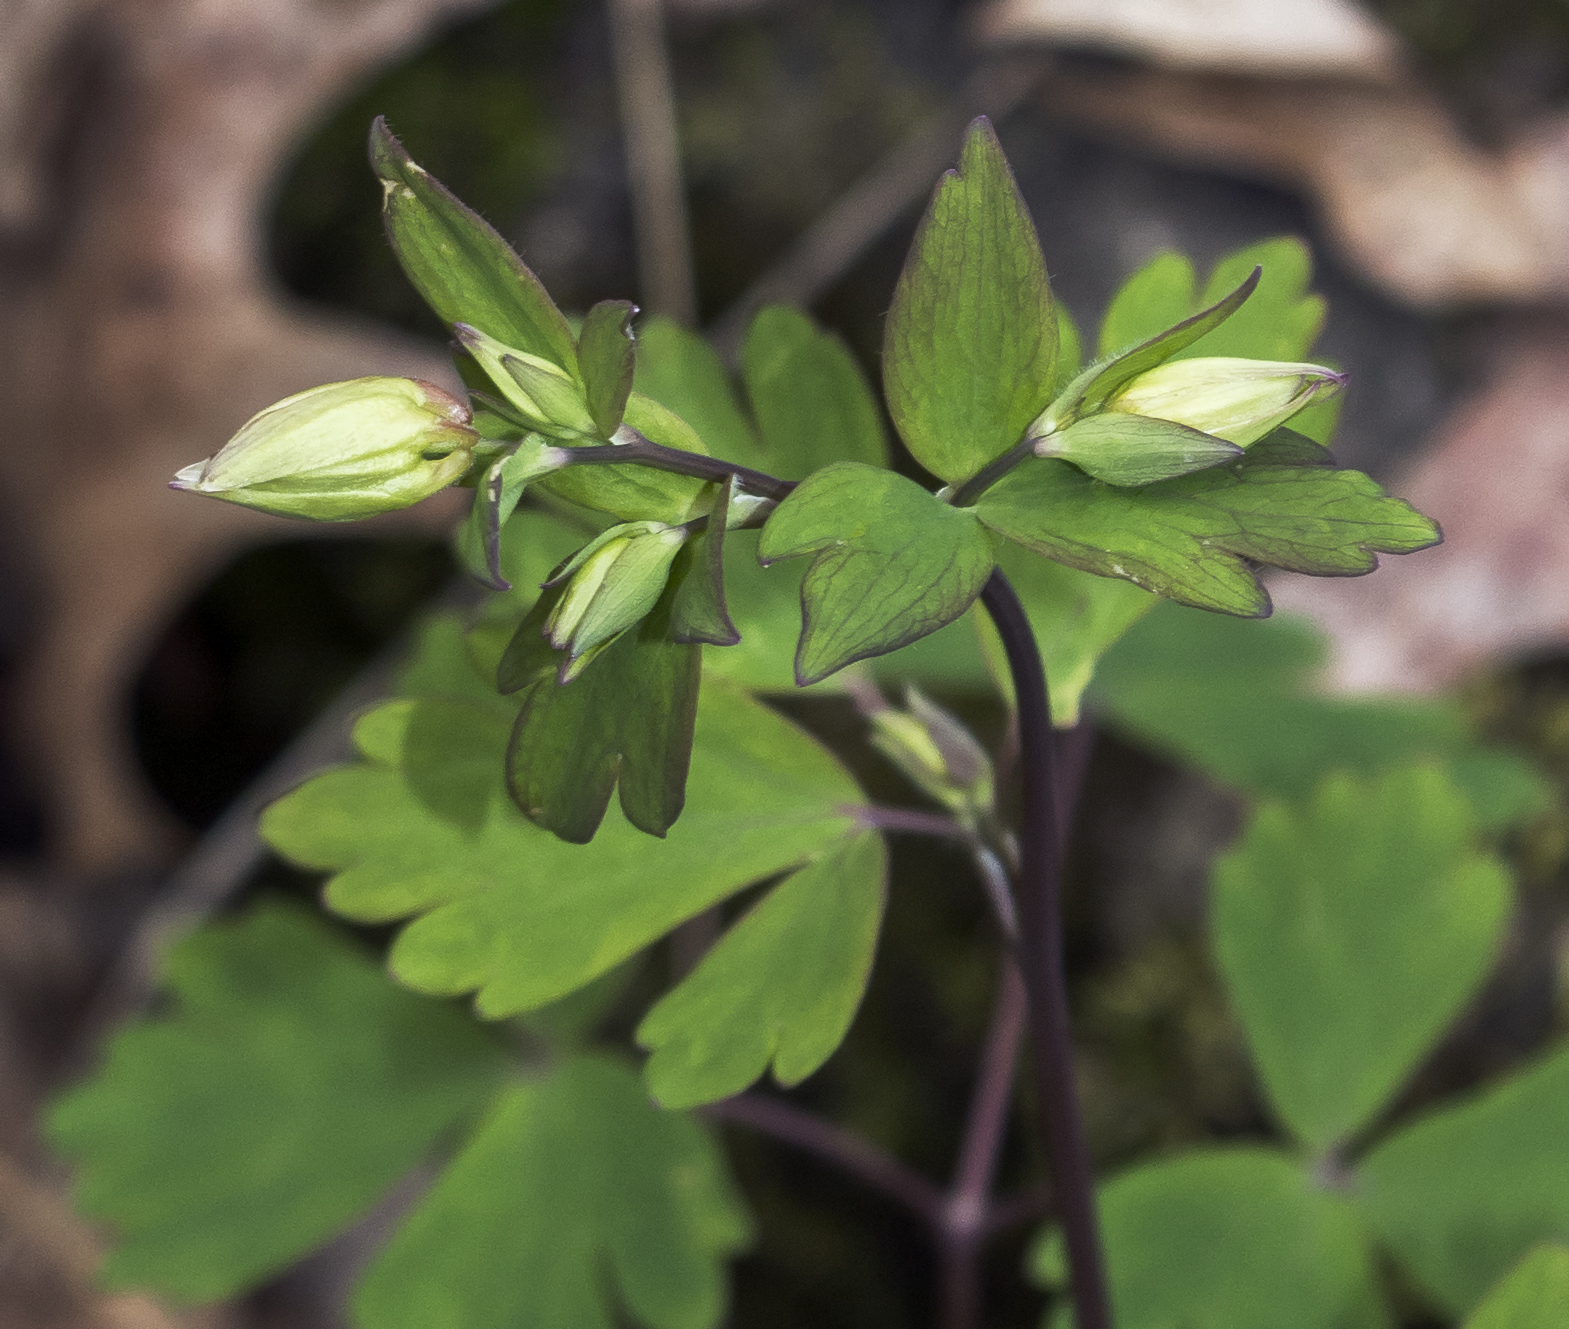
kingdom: Plantae
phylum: Tracheophyta
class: Magnoliopsida
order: Ranunculales
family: Ranunculaceae
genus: Aquilegia
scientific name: Aquilegia canadensis
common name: American columbine
